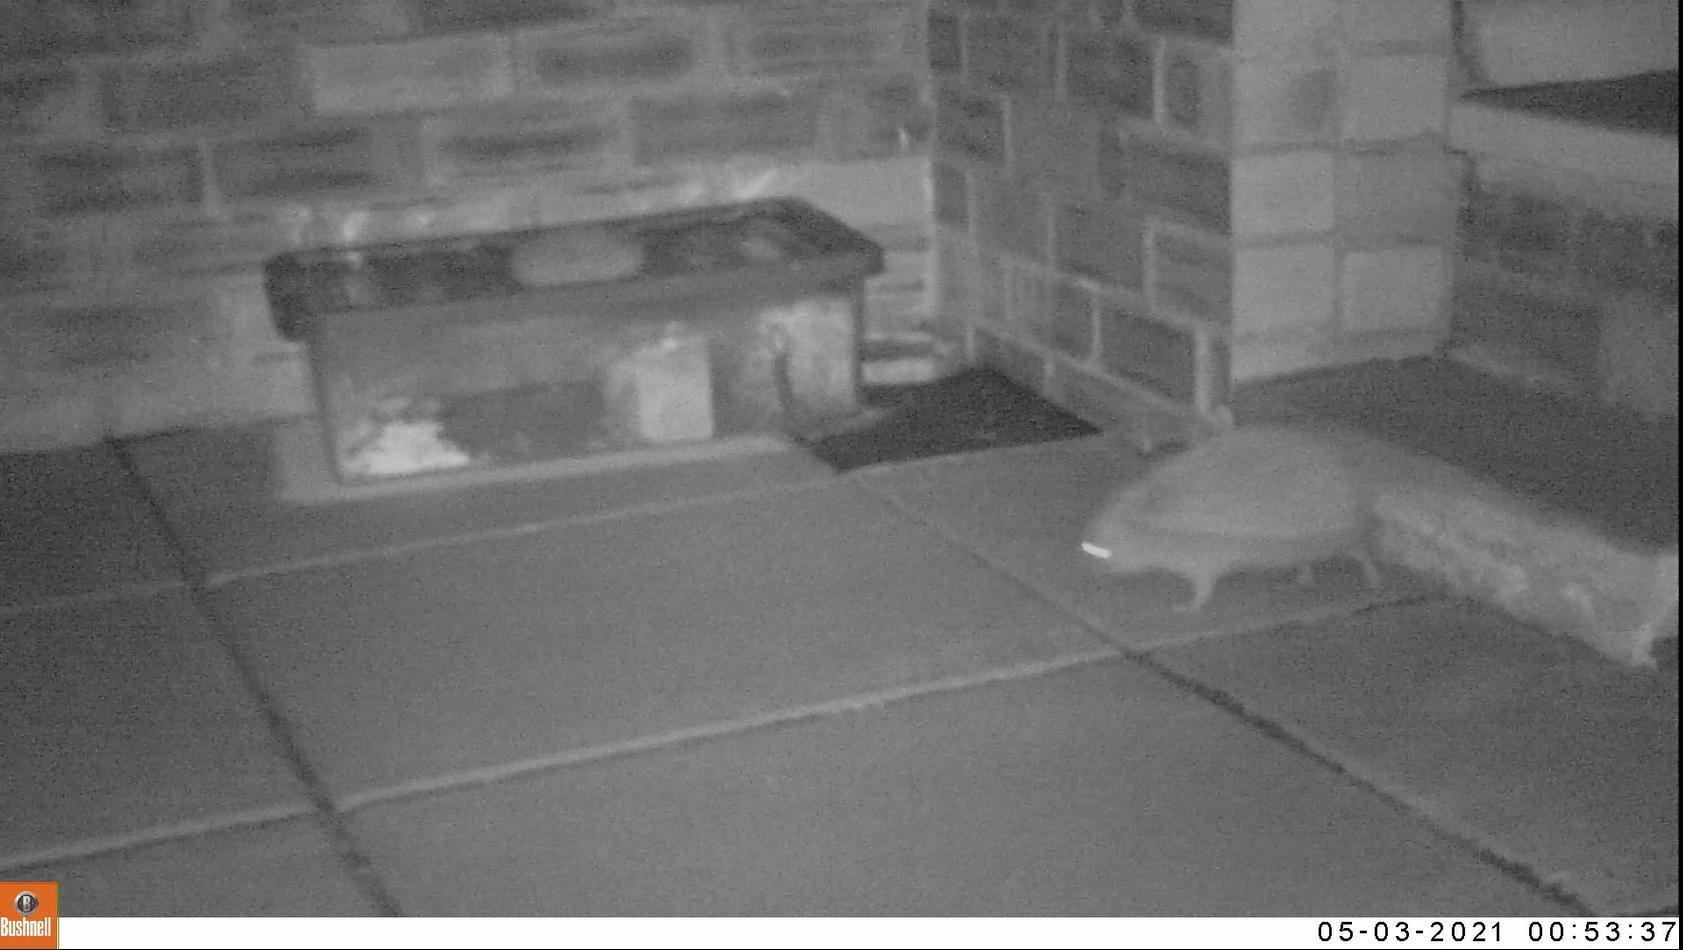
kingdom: Animalia
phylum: Chordata
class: Mammalia
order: Erinaceomorpha
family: Erinaceidae
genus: Erinaceus
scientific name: Erinaceus europaeus
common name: West european hedgehog
